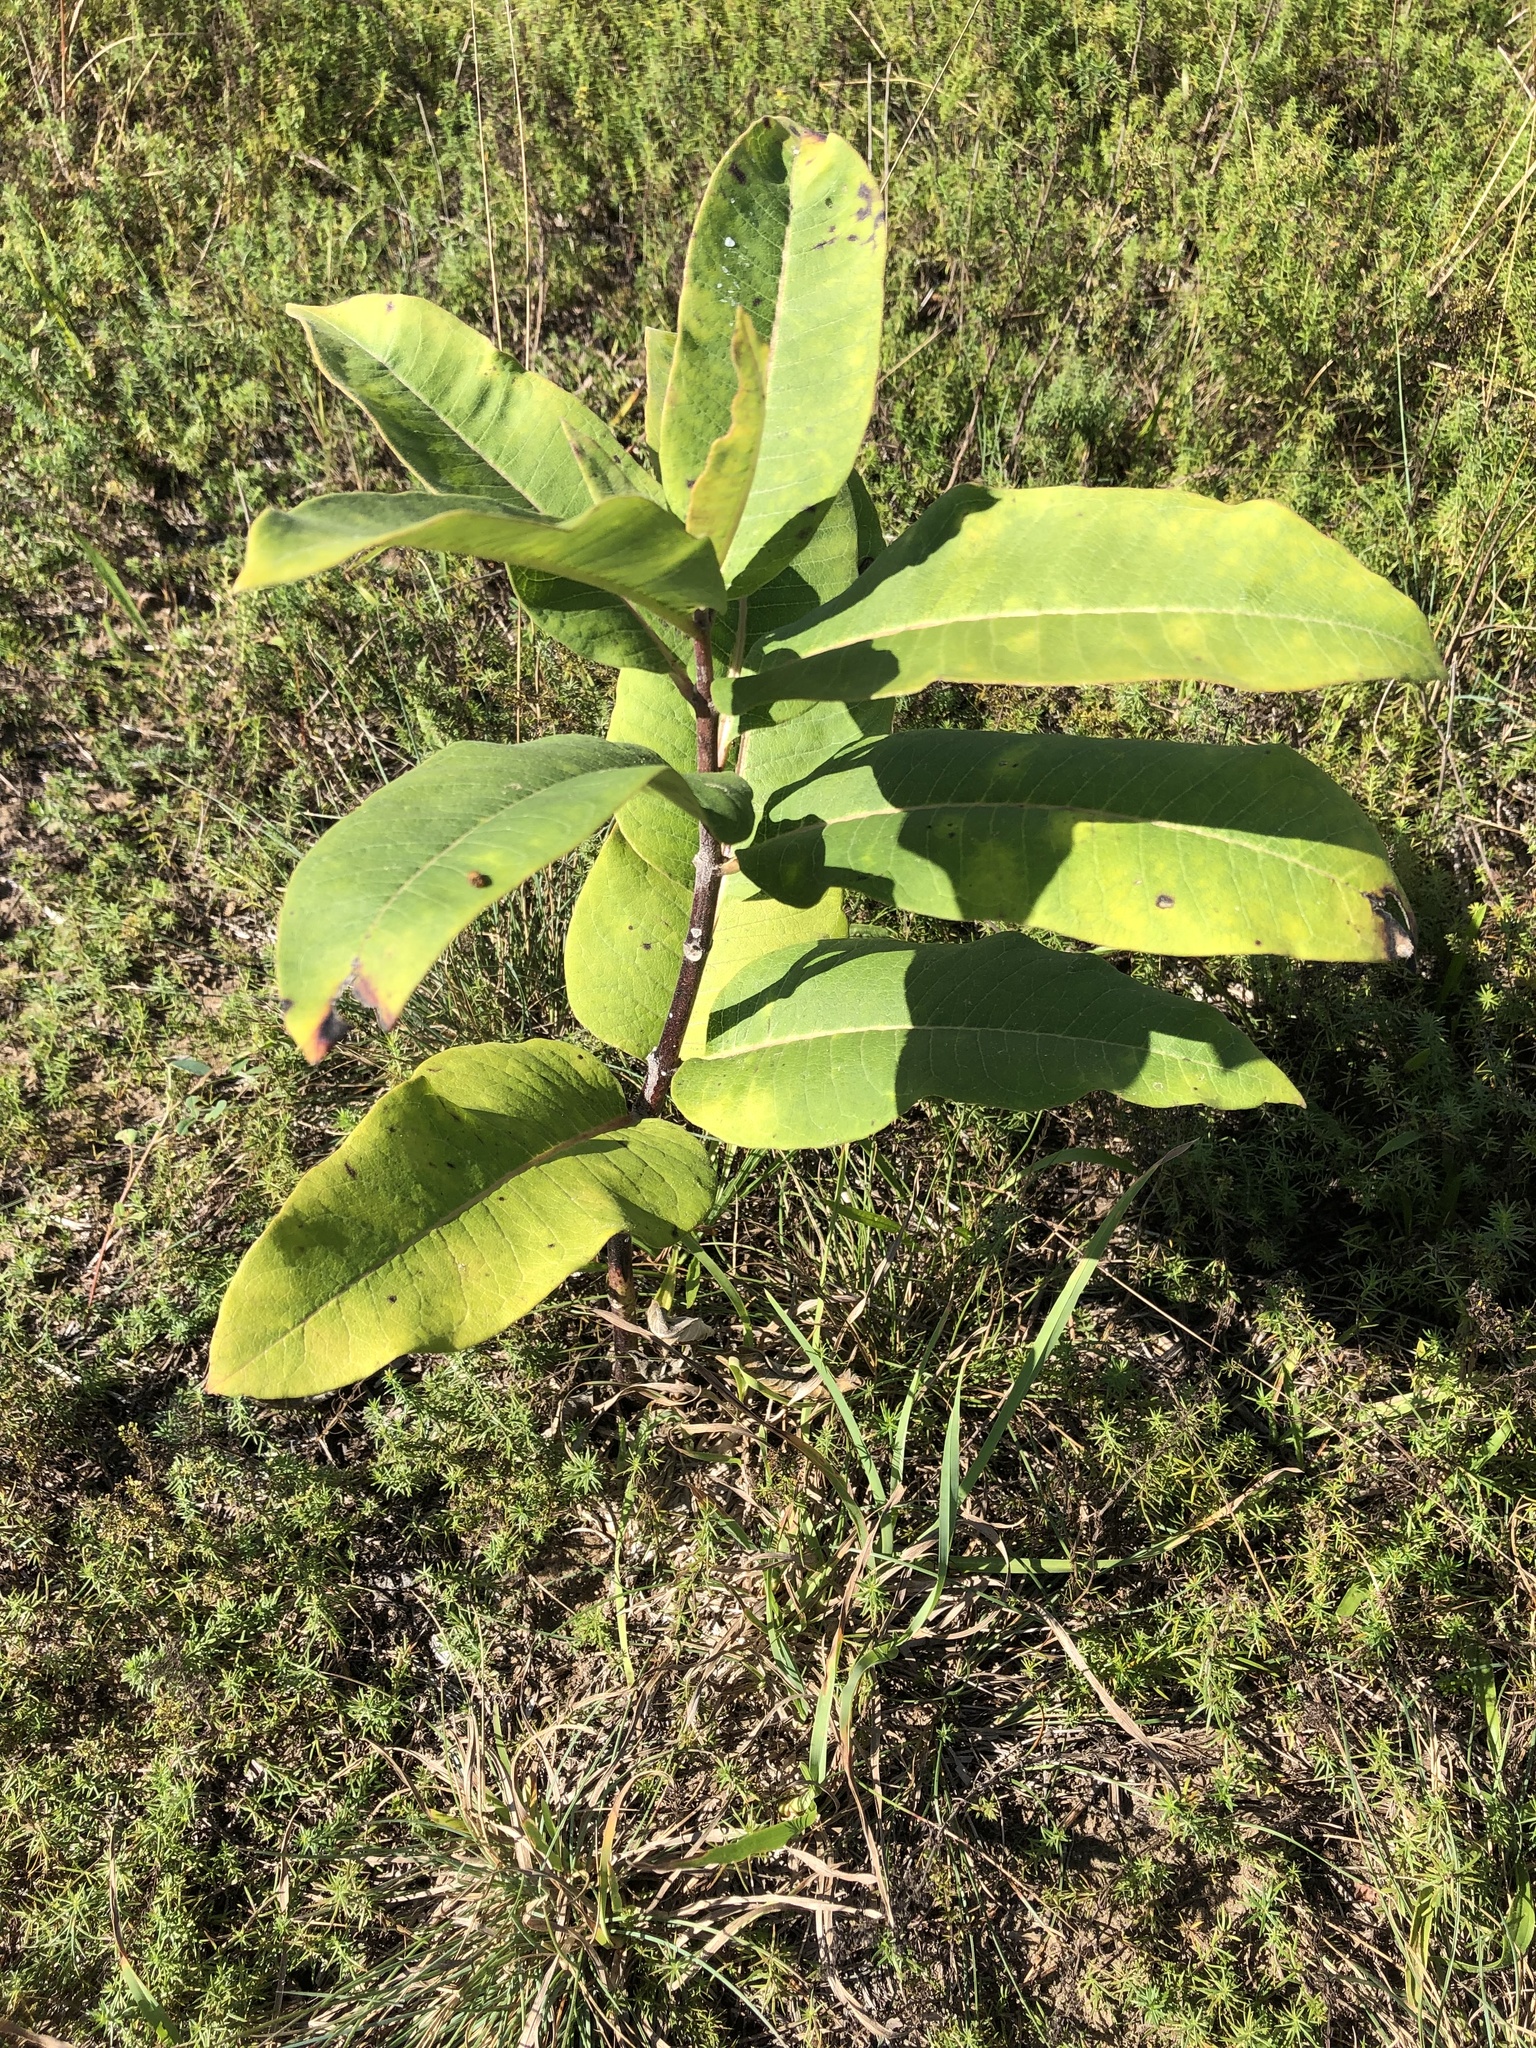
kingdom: Plantae
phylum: Tracheophyta
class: Magnoliopsida
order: Gentianales
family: Apocynaceae
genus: Asclepias
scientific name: Asclepias syriaca
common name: Common milkweed
